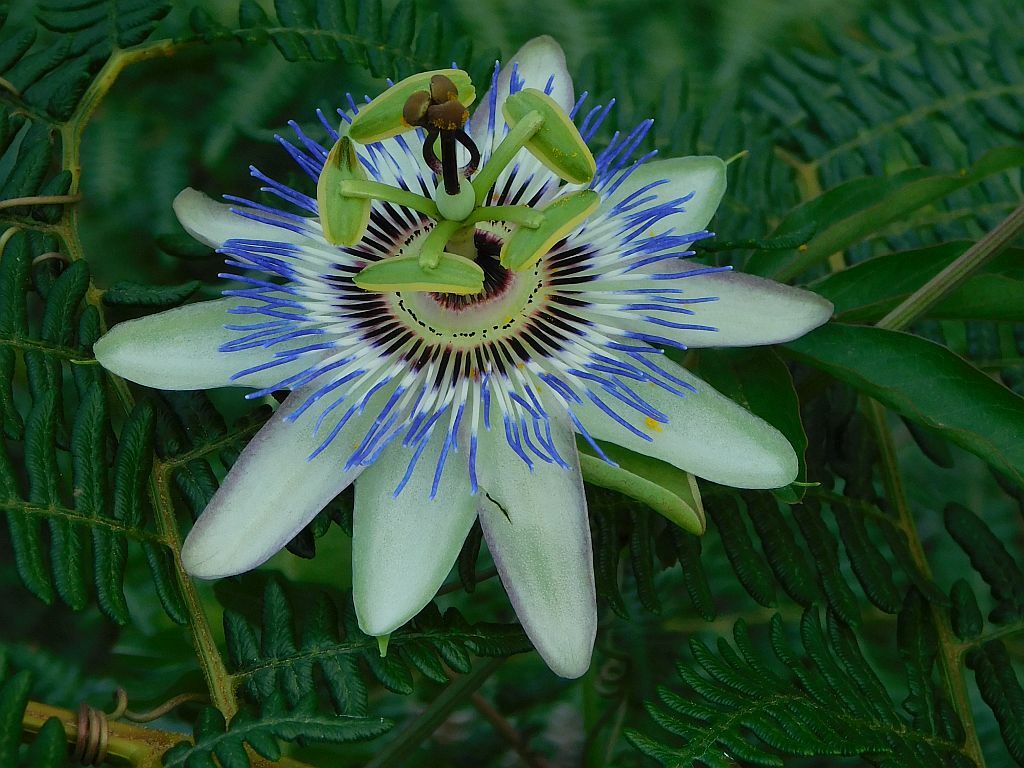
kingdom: Plantae
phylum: Tracheophyta
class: Magnoliopsida
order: Malpighiales
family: Passifloraceae
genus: Passiflora
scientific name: Passiflora caerulea
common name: Blue passionflower
